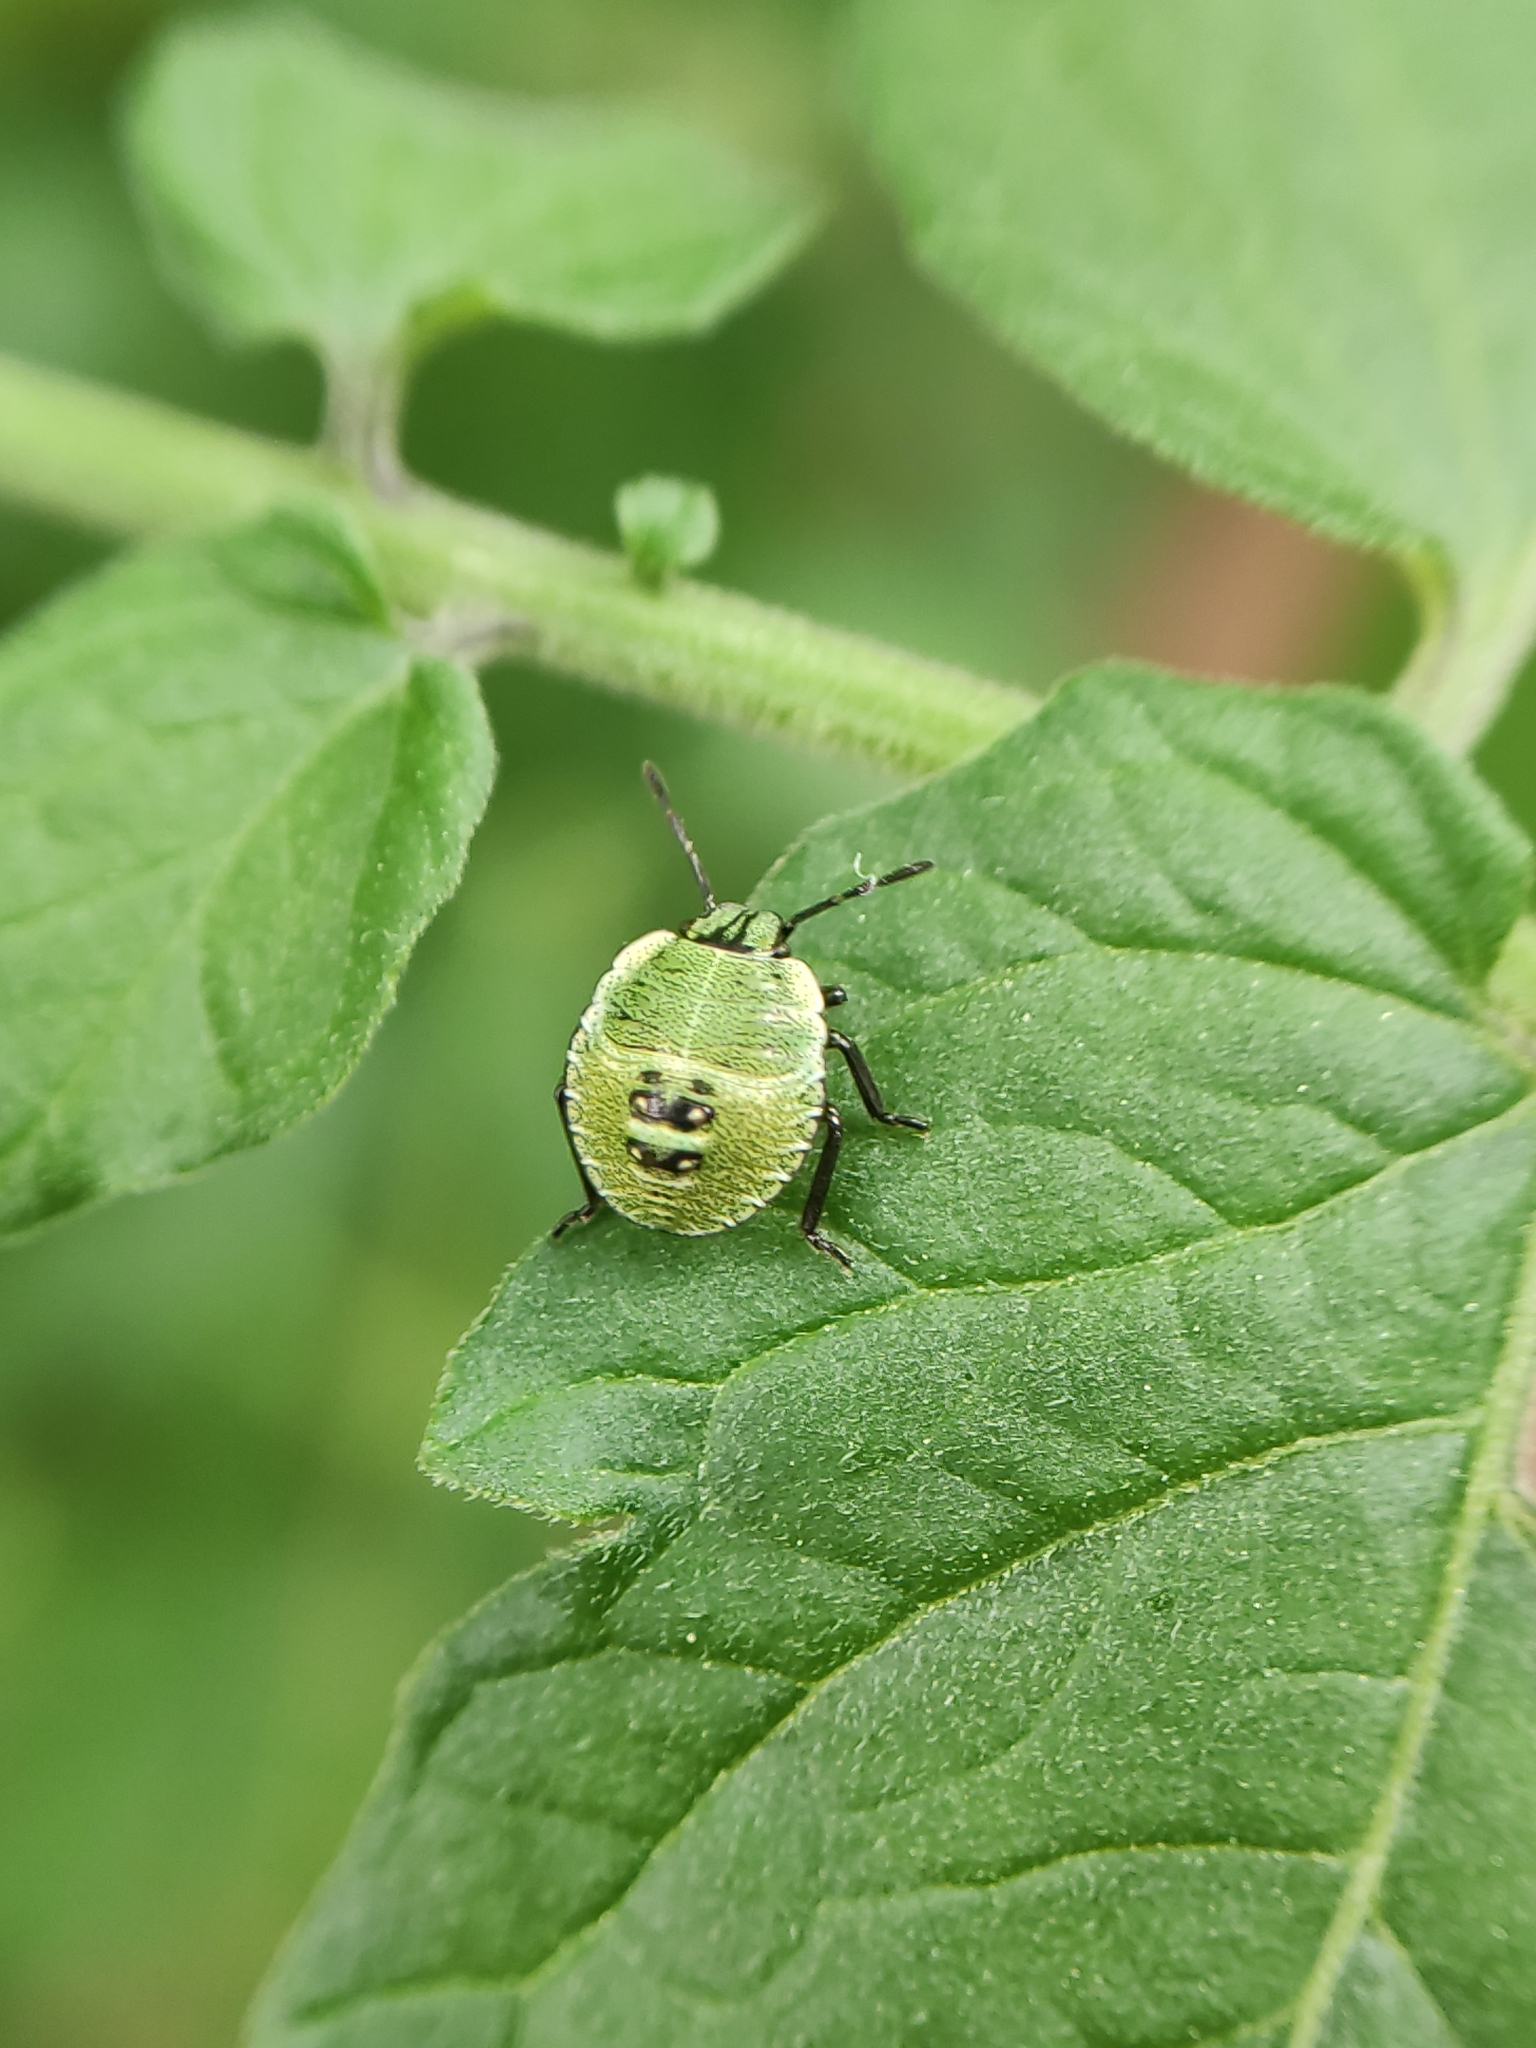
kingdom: Animalia
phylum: Arthropoda
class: Insecta
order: Hemiptera
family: Pentatomidae
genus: Palomena
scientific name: Palomena prasina
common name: Green shieldbug
